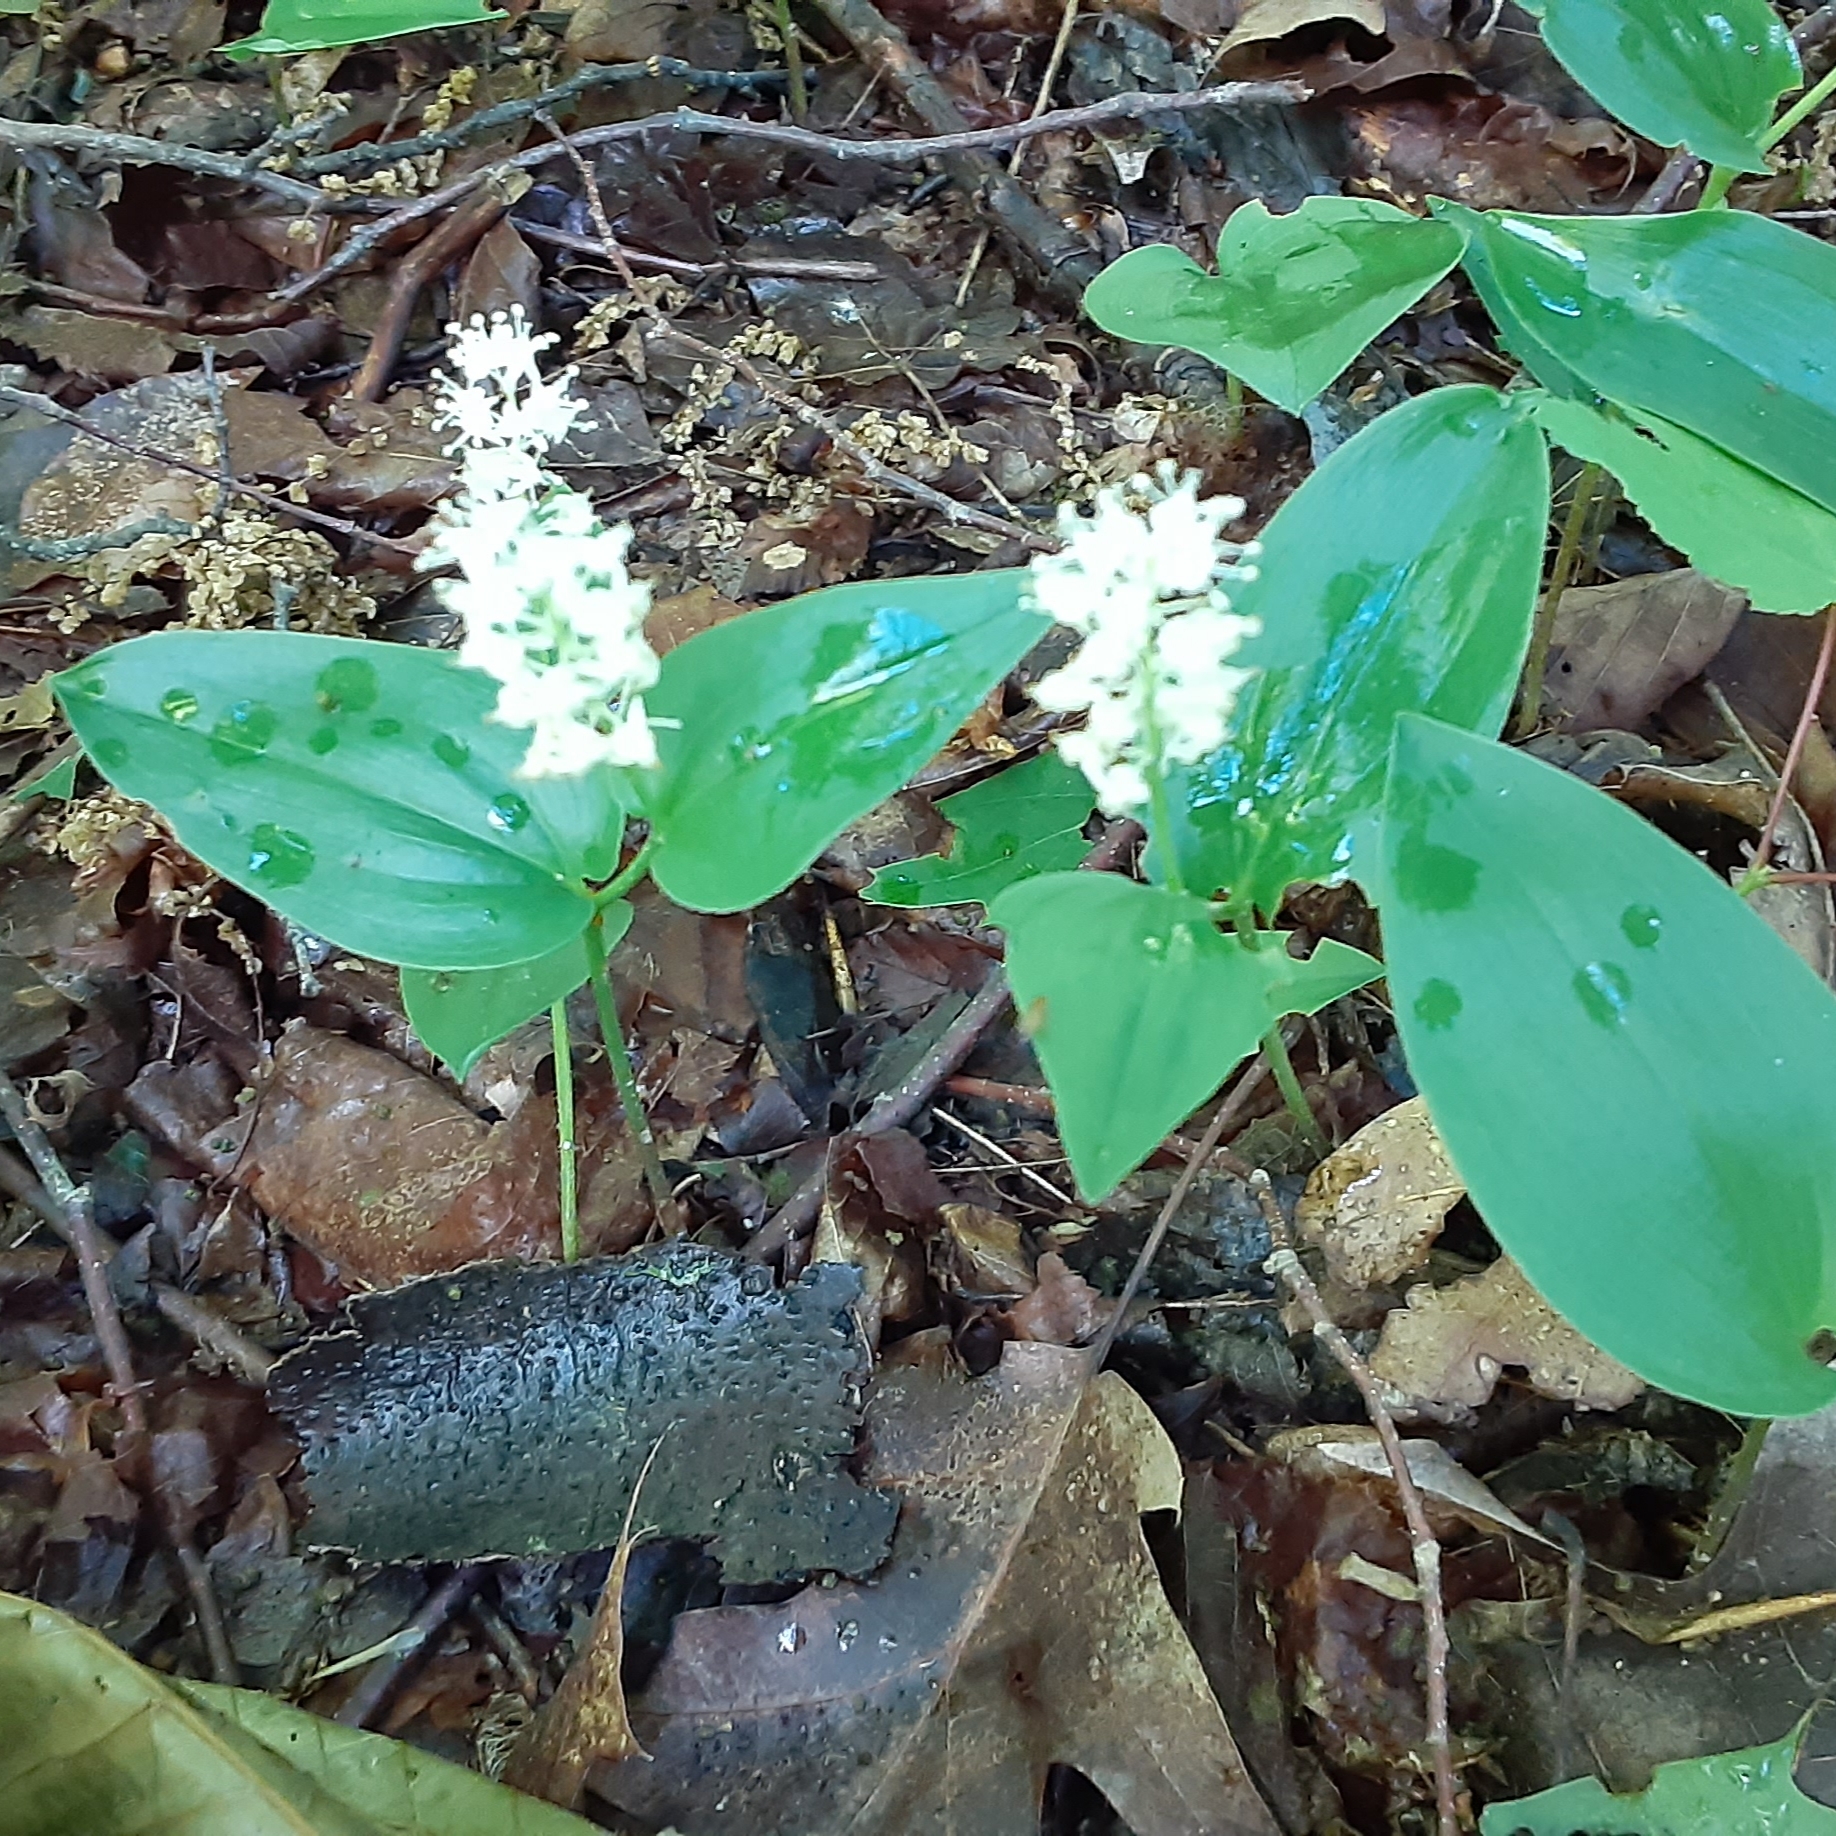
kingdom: Plantae
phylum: Tracheophyta
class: Liliopsida
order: Asparagales
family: Asparagaceae
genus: Maianthemum
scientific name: Maianthemum canadense
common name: False lily-of-the-valley
